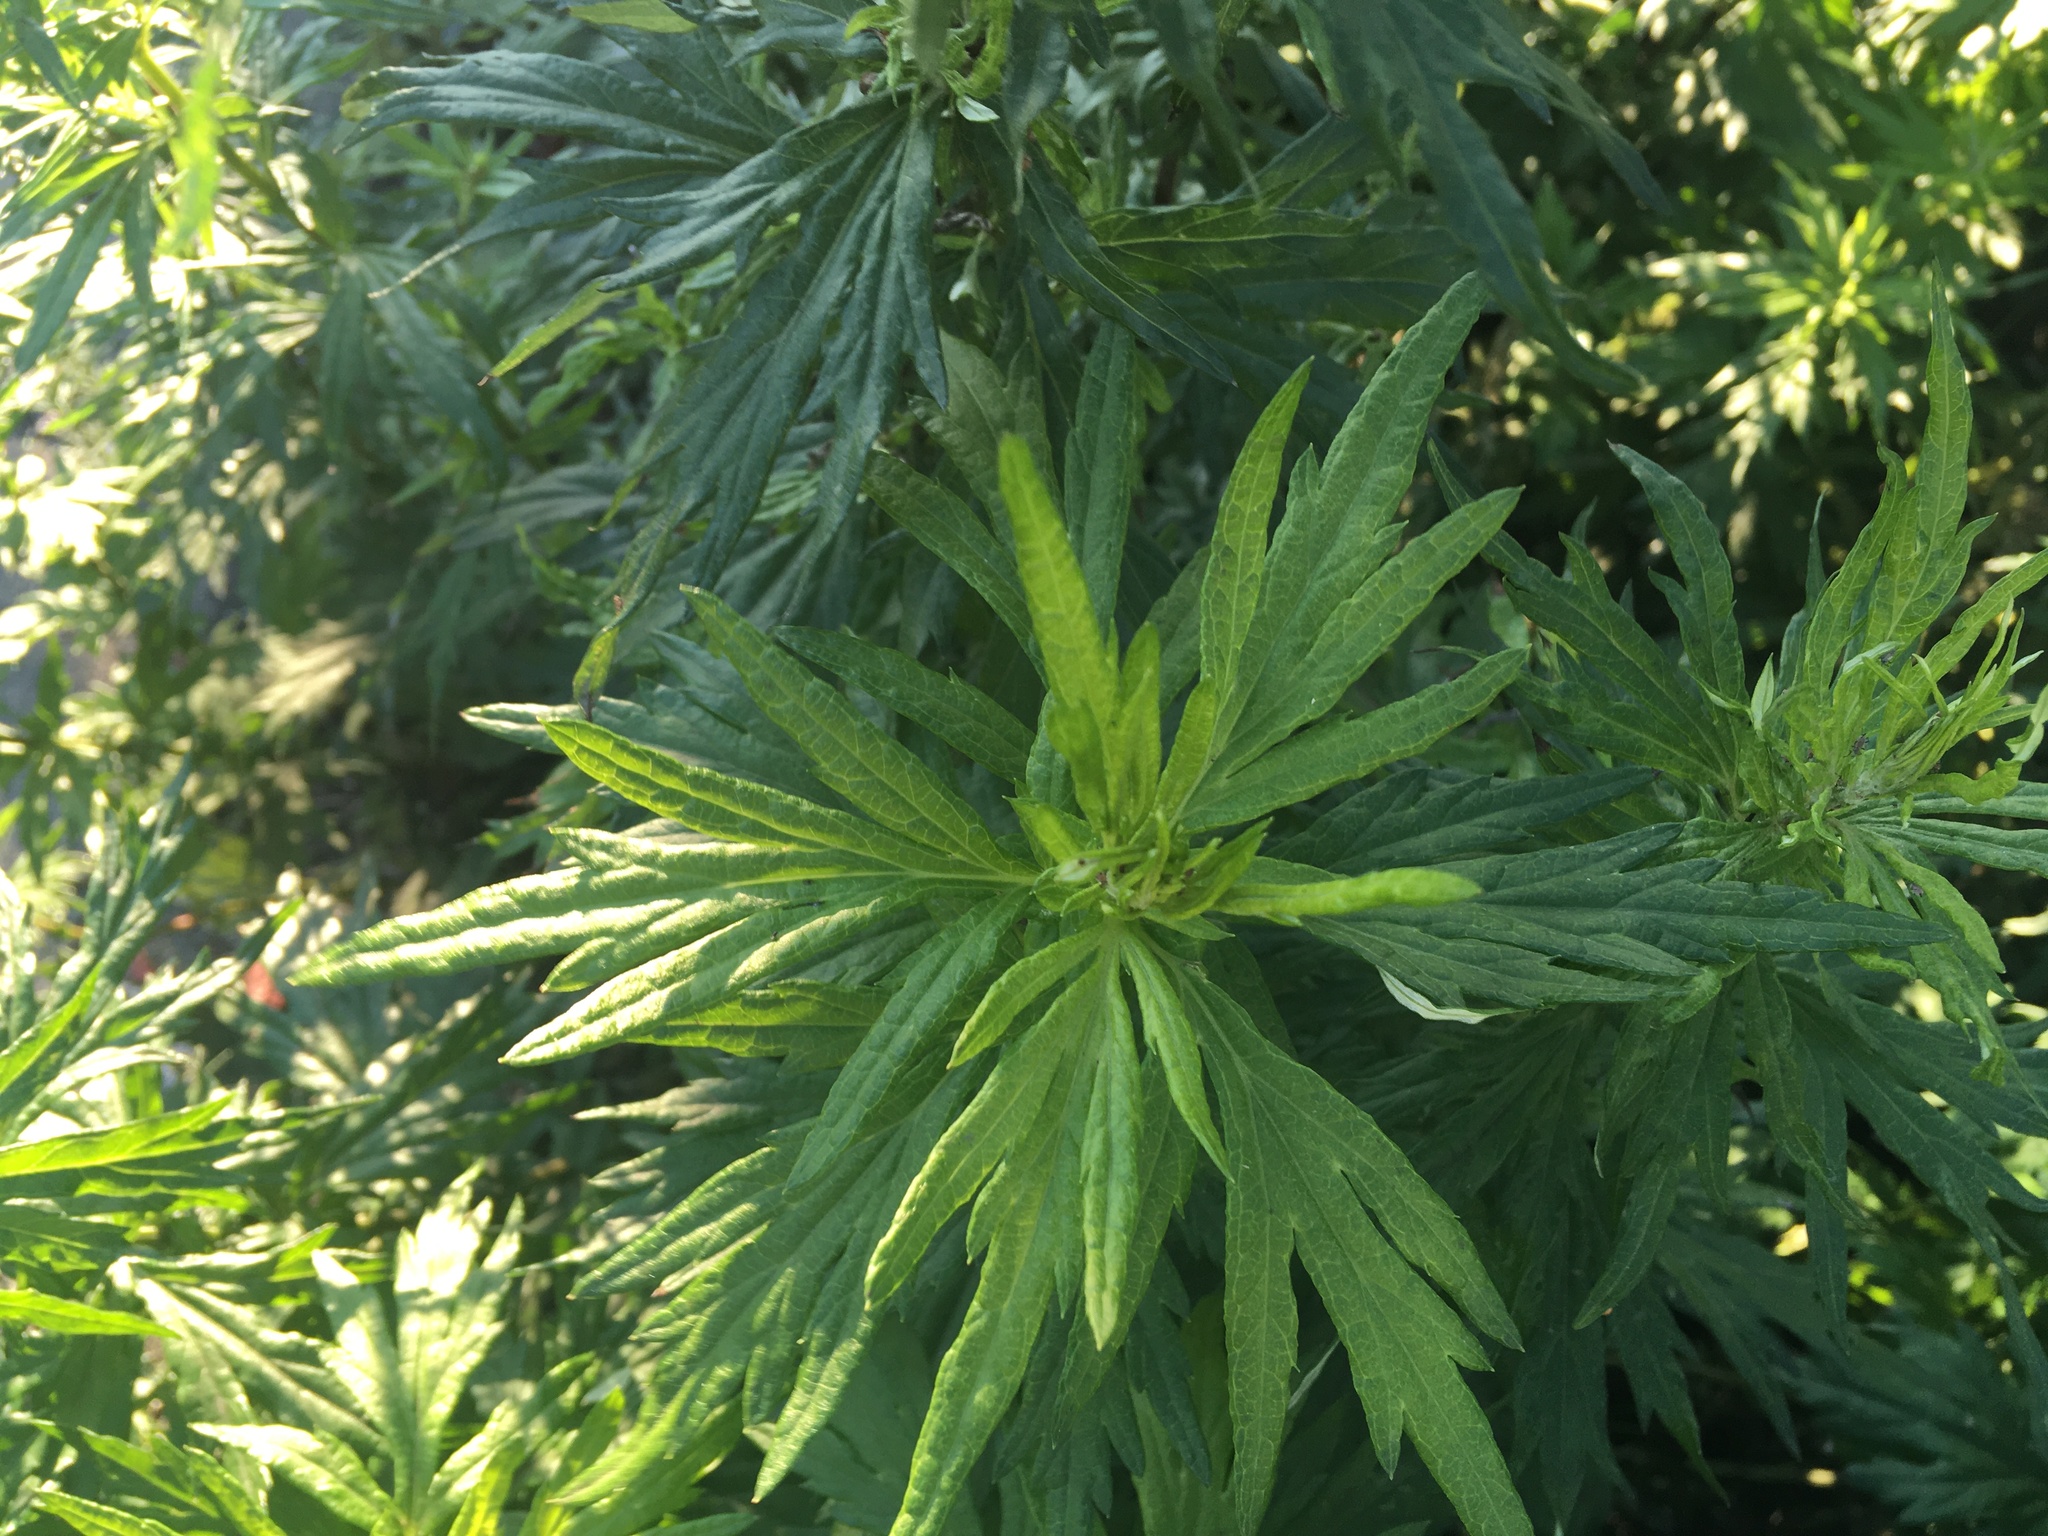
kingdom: Plantae
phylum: Tracheophyta
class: Magnoliopsida
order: Asterales
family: Asteraceae
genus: Artemisia
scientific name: Artemisia vulgaris
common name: Mugwort
